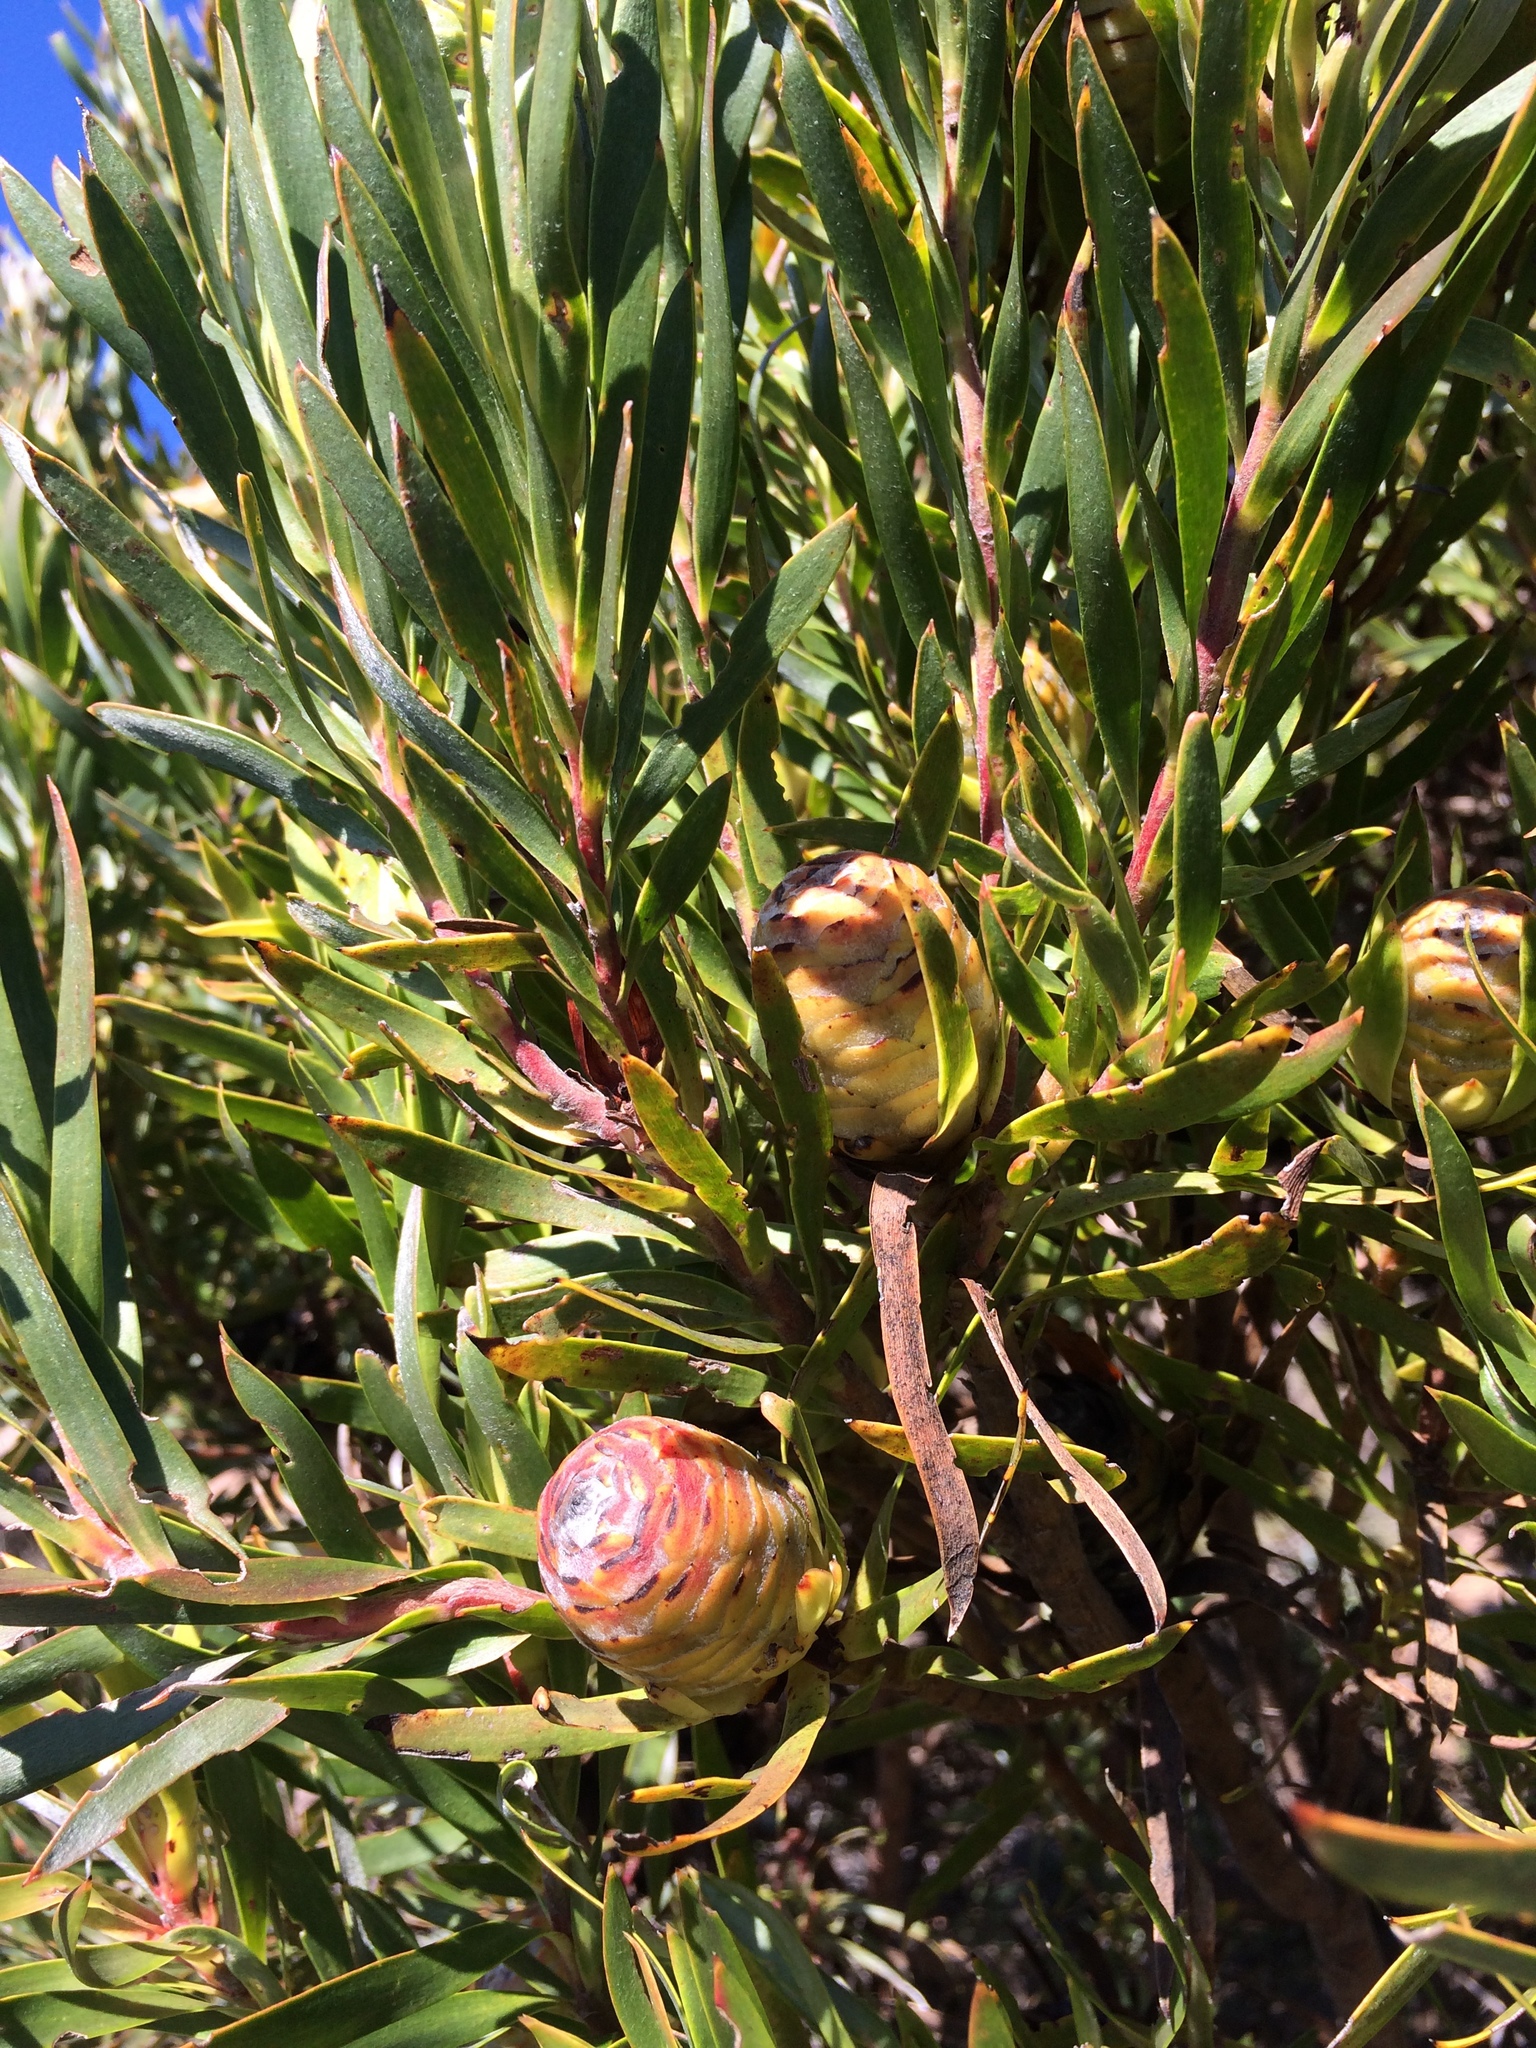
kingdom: Plantae
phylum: Tracheophyta
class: Magnoliopsida
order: Proteales
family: Proteaceae
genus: Leucadendron
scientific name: Leucadendron xanthoconus
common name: Sickle-leaf conebush
